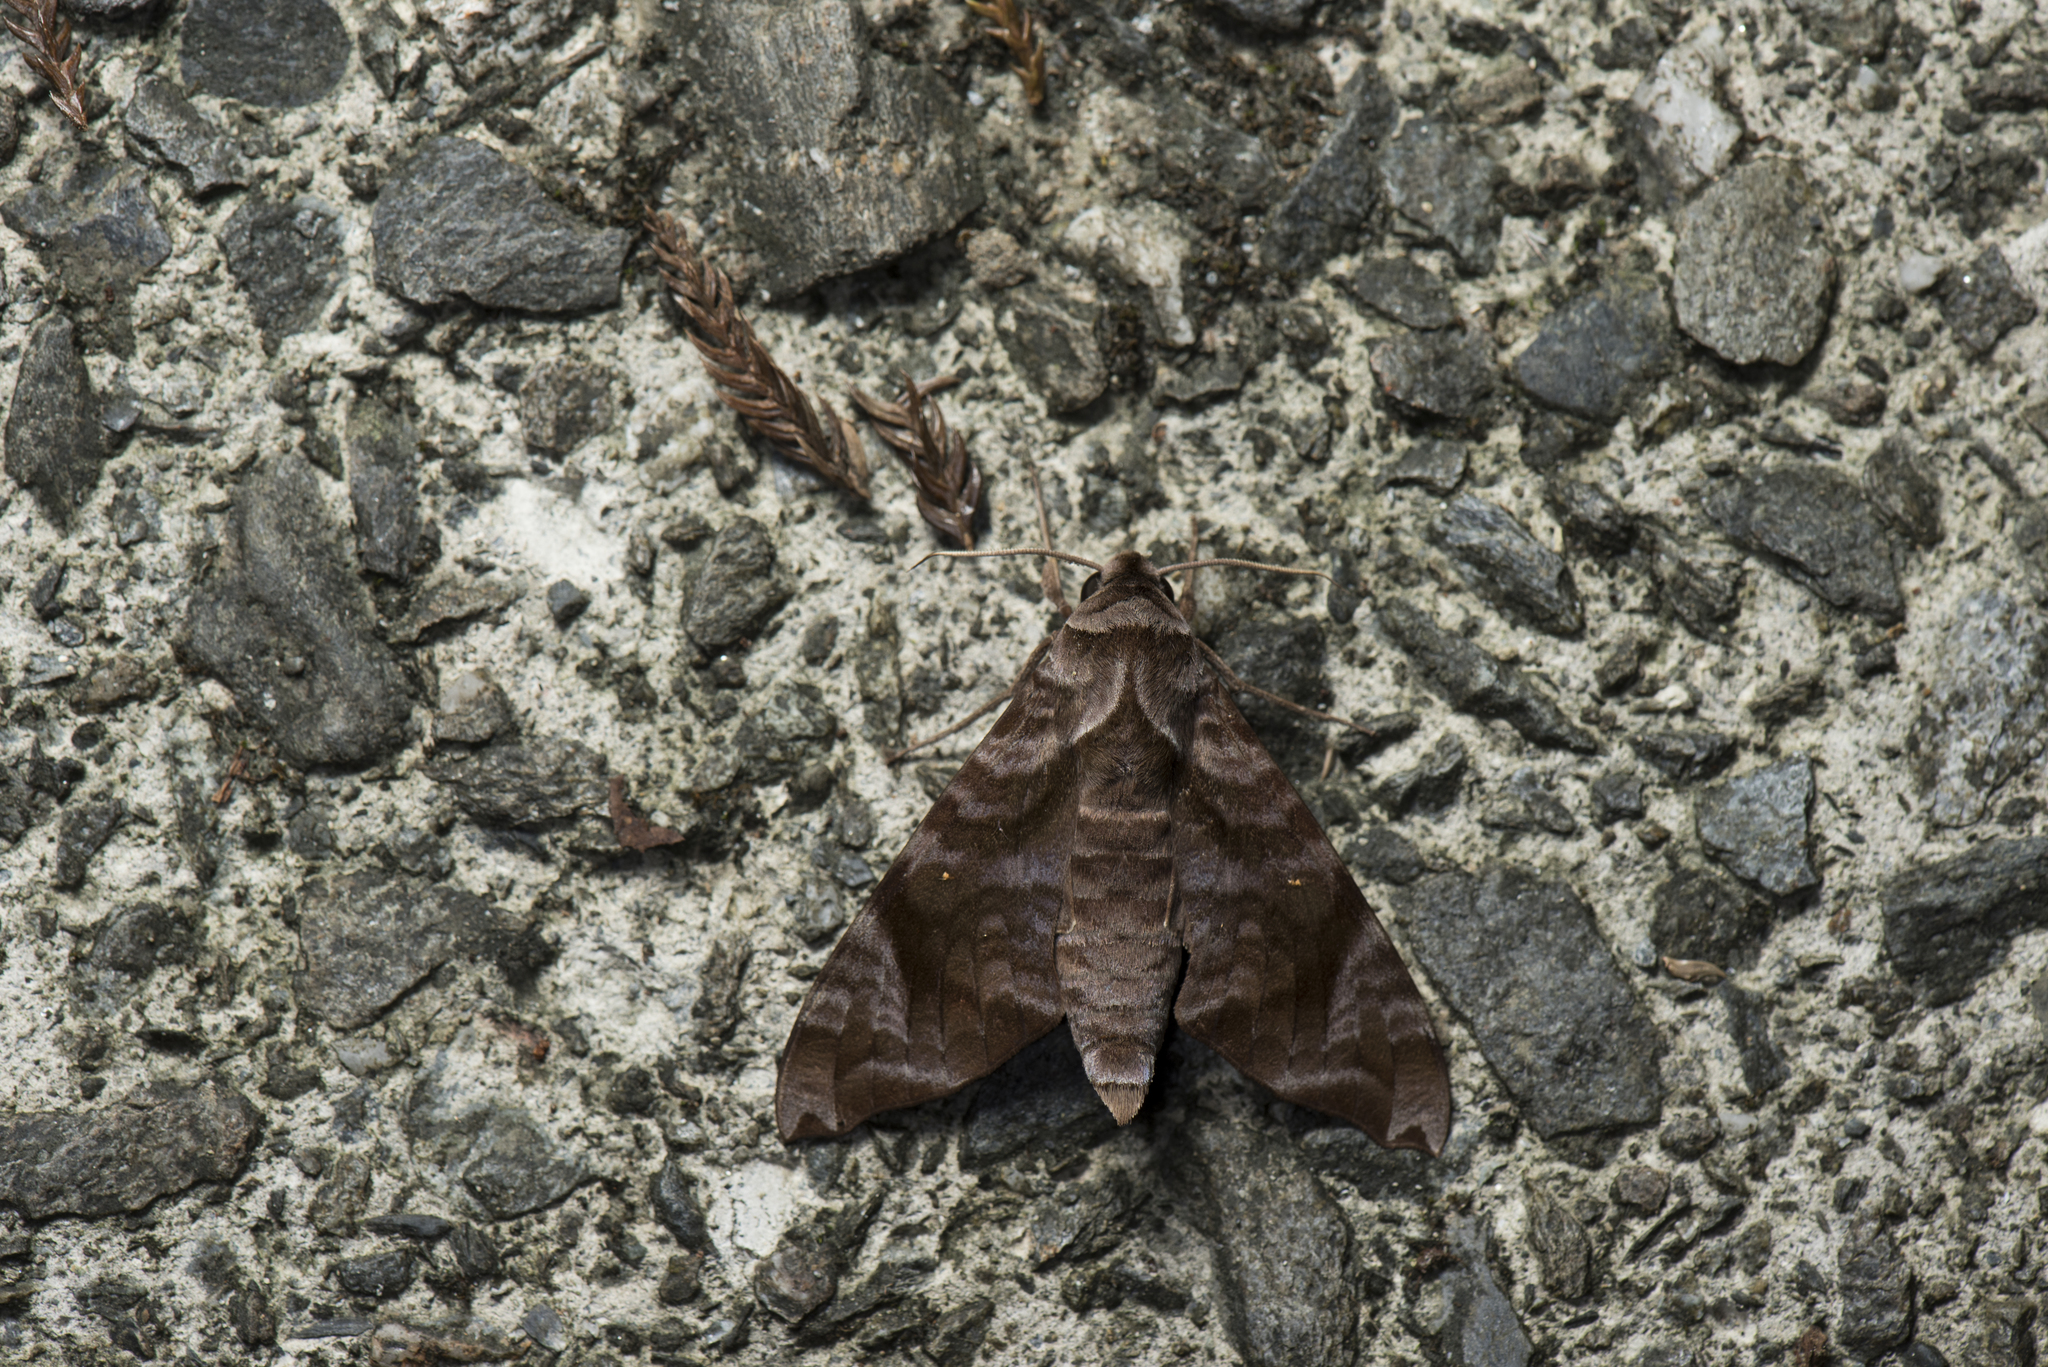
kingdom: Animalia
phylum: Arthropoda
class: Insecta
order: Lepidoptera
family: Sphingidae
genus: Acosmeryx
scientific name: Acosmeryx castanea
